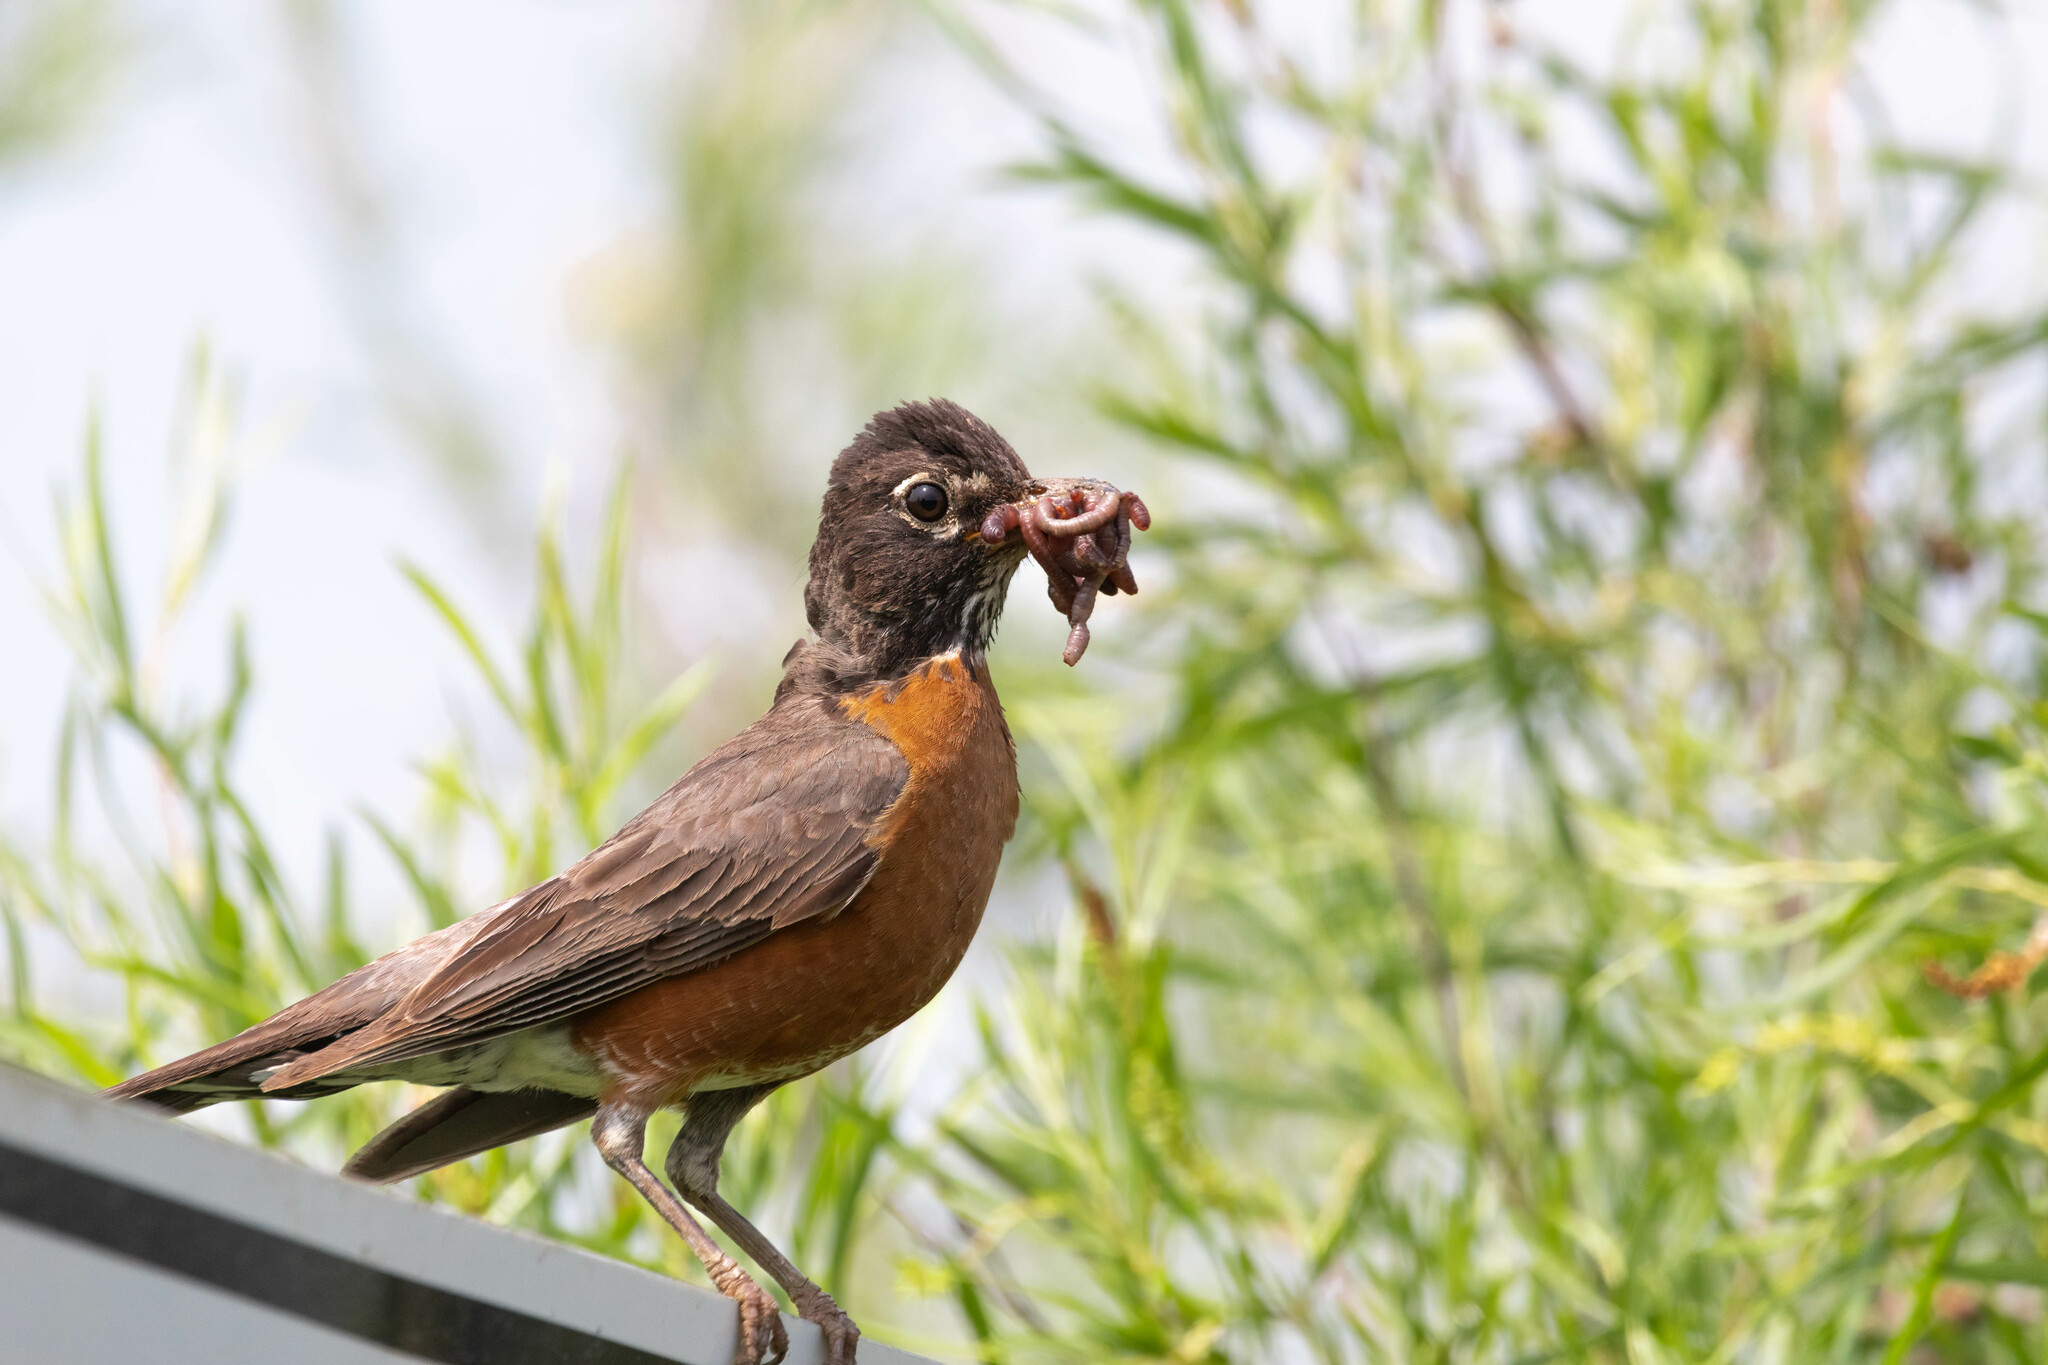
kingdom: Animalia
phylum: Chordata
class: Aves
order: Passeriformes
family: Turdidae
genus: Turdus
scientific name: Turdus migratorius
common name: American robin
